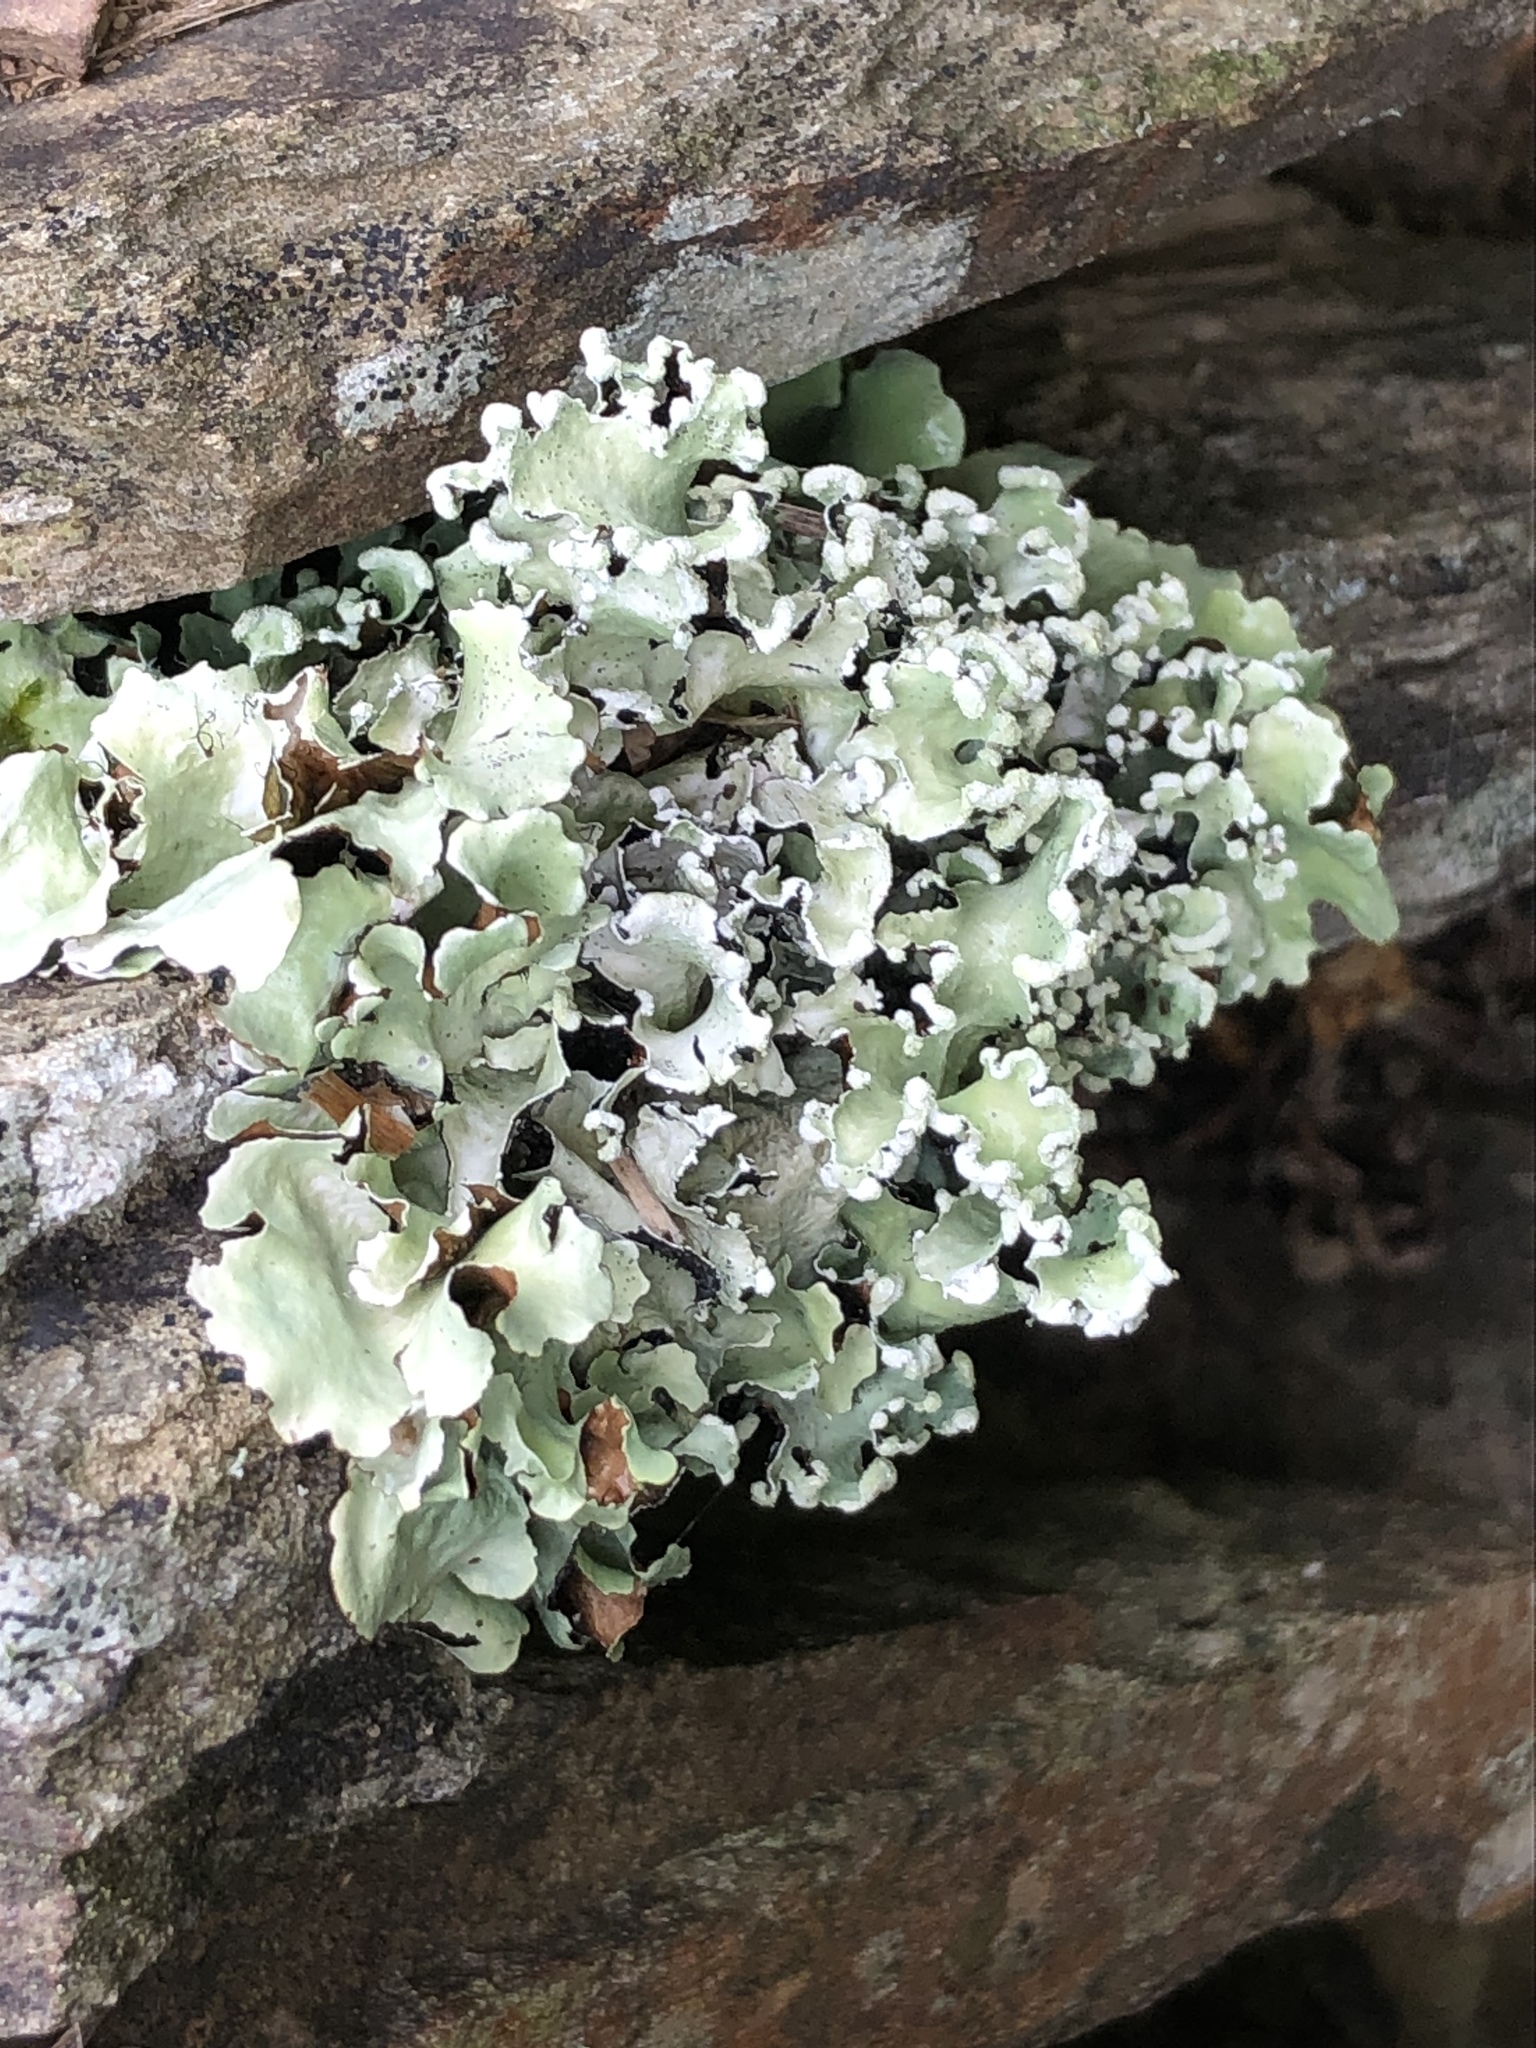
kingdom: Fungi
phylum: Ascomycota
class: Lecanoromycetes
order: Lecanorales
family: Parmeliaceae
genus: Parmotrema
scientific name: Parmotrema perlatum
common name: Black stone flower
